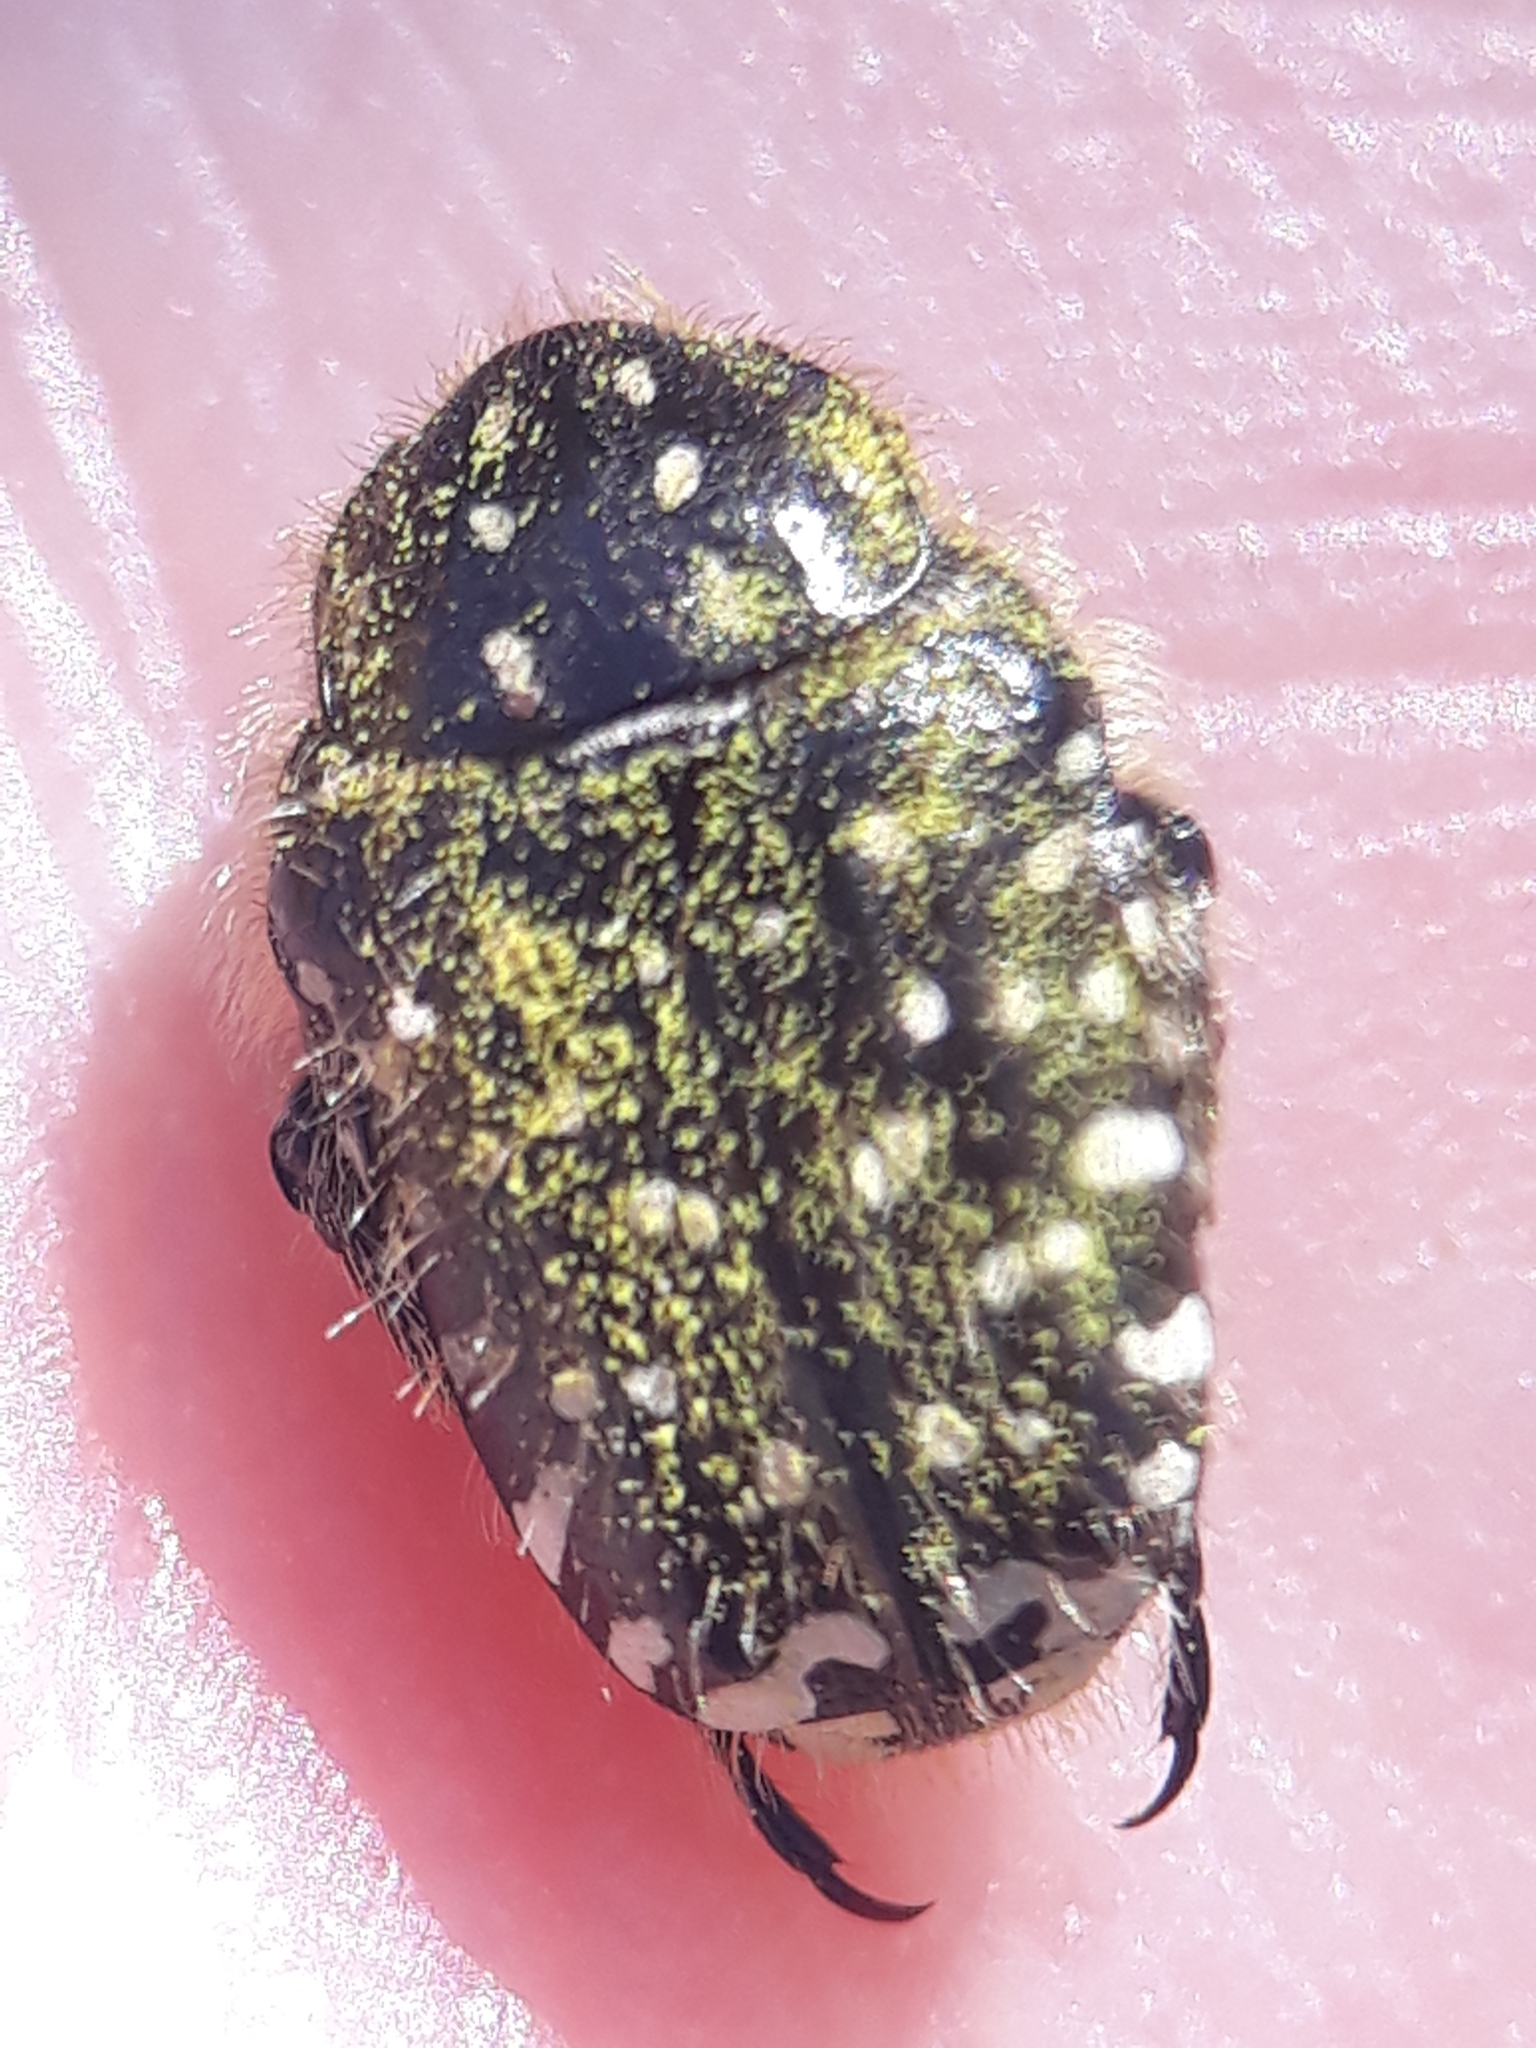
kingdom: Animalia
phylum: Arthropoda
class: Insecta
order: Coleoptera
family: Scarabaeidae
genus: Oxythyrea
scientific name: Oxythyrea funesta
